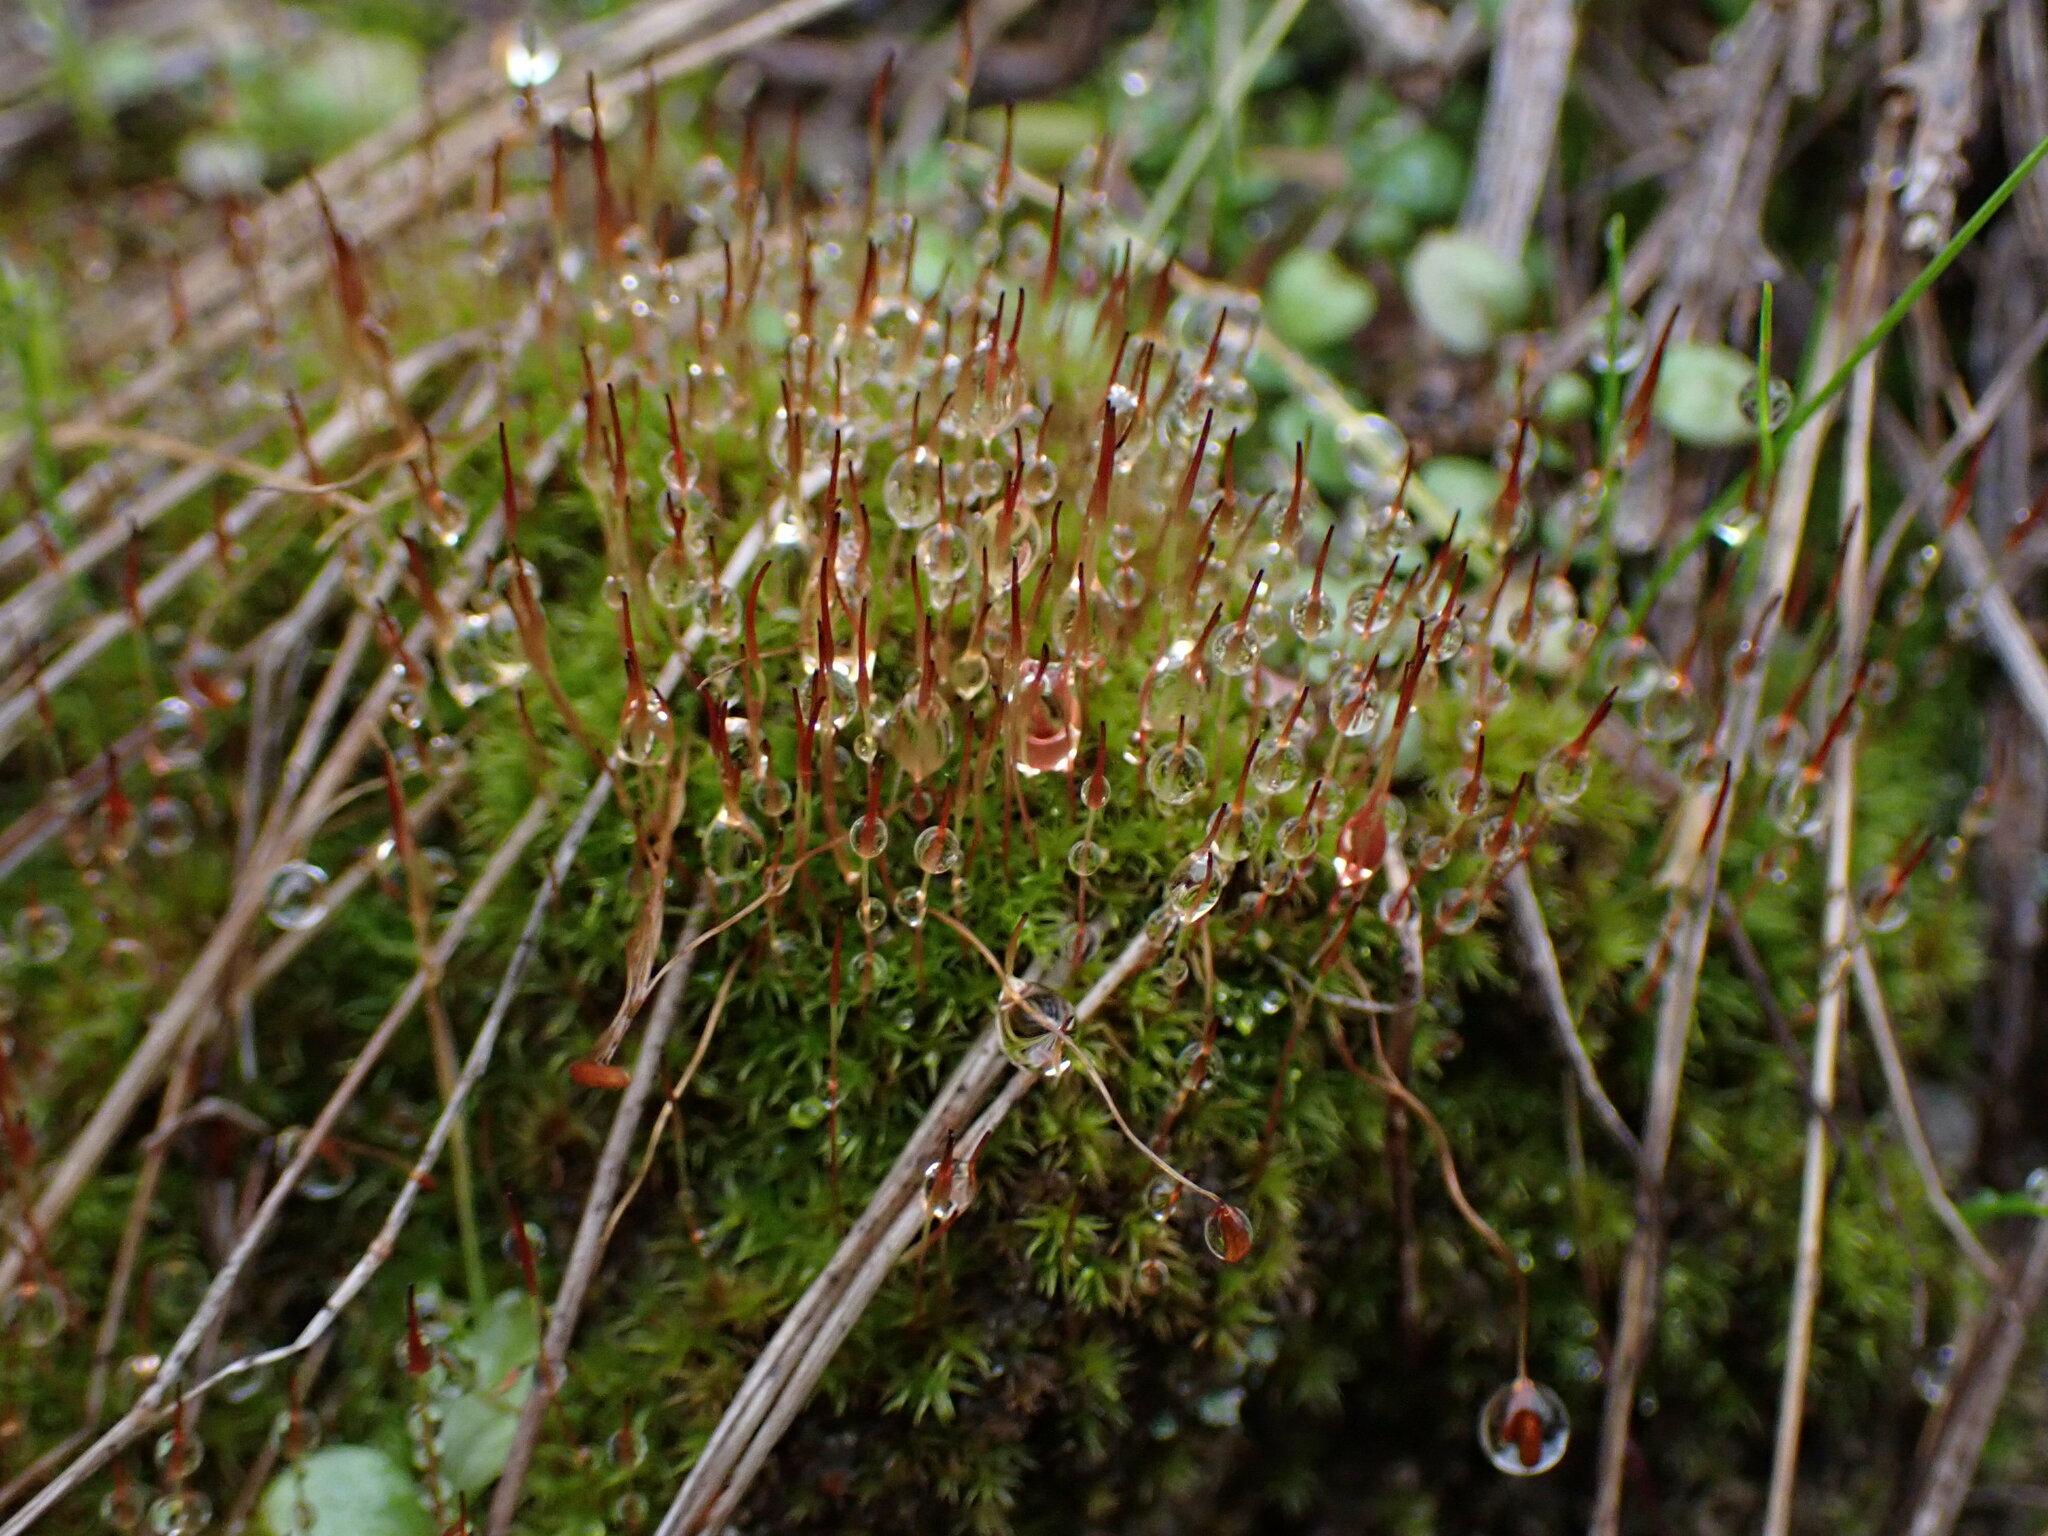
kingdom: Plantae
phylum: Bryophyta
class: Bryopsida
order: Dicranales
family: Ditrichaceae
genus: Ceratodon
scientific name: Ceratodon purpureus
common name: Redshank
